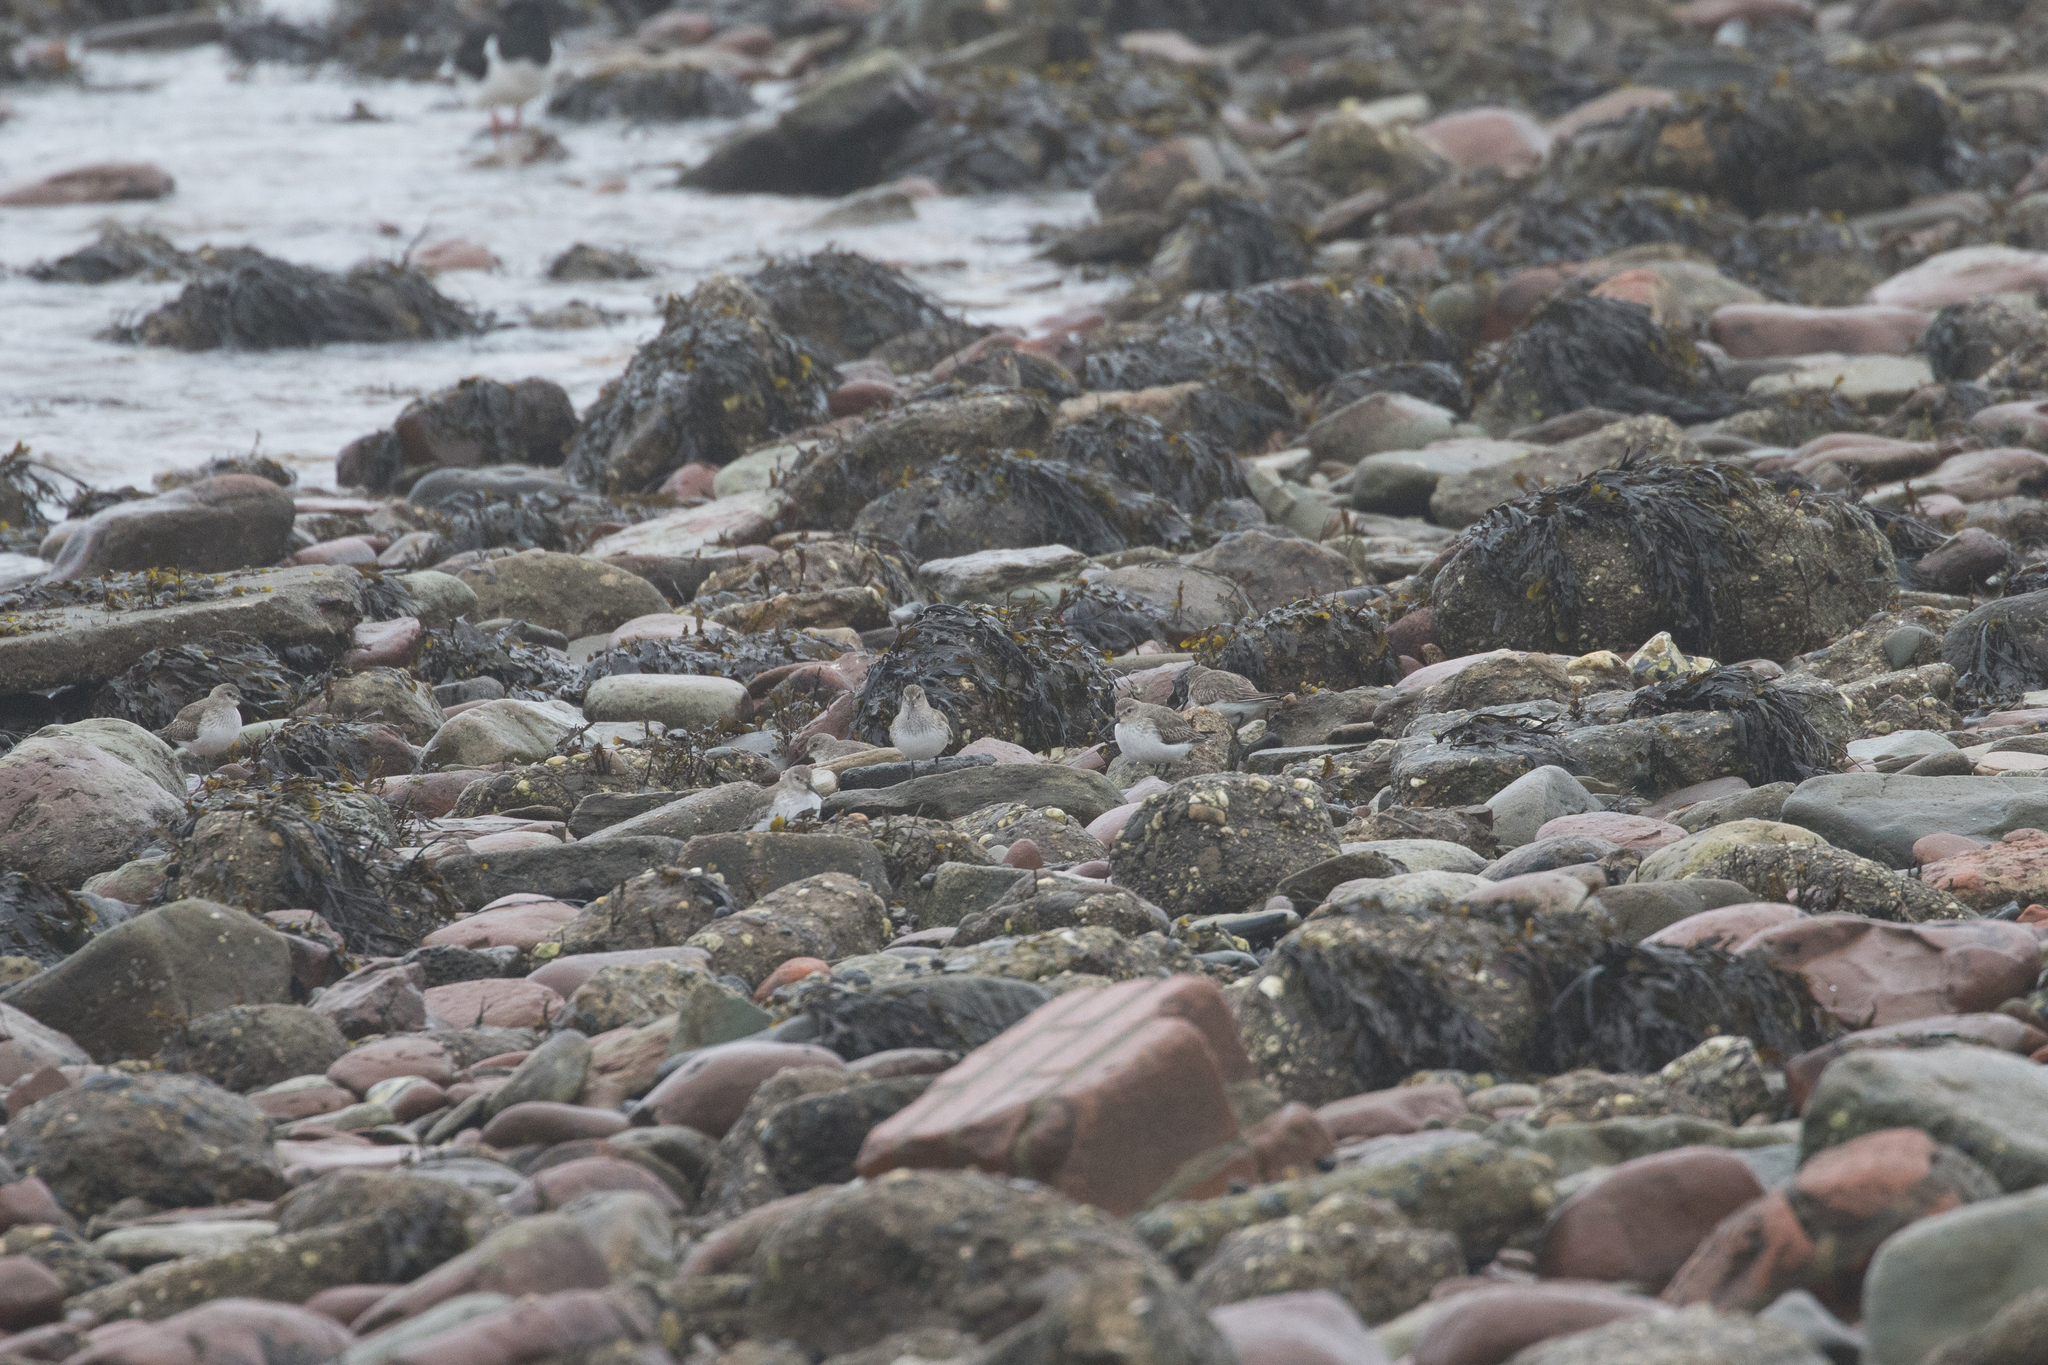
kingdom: Animalia
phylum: Chordata
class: Aves
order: Charadriiformes
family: Scolopacidae
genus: Calidris
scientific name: Calidris alpina
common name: Dunlin
